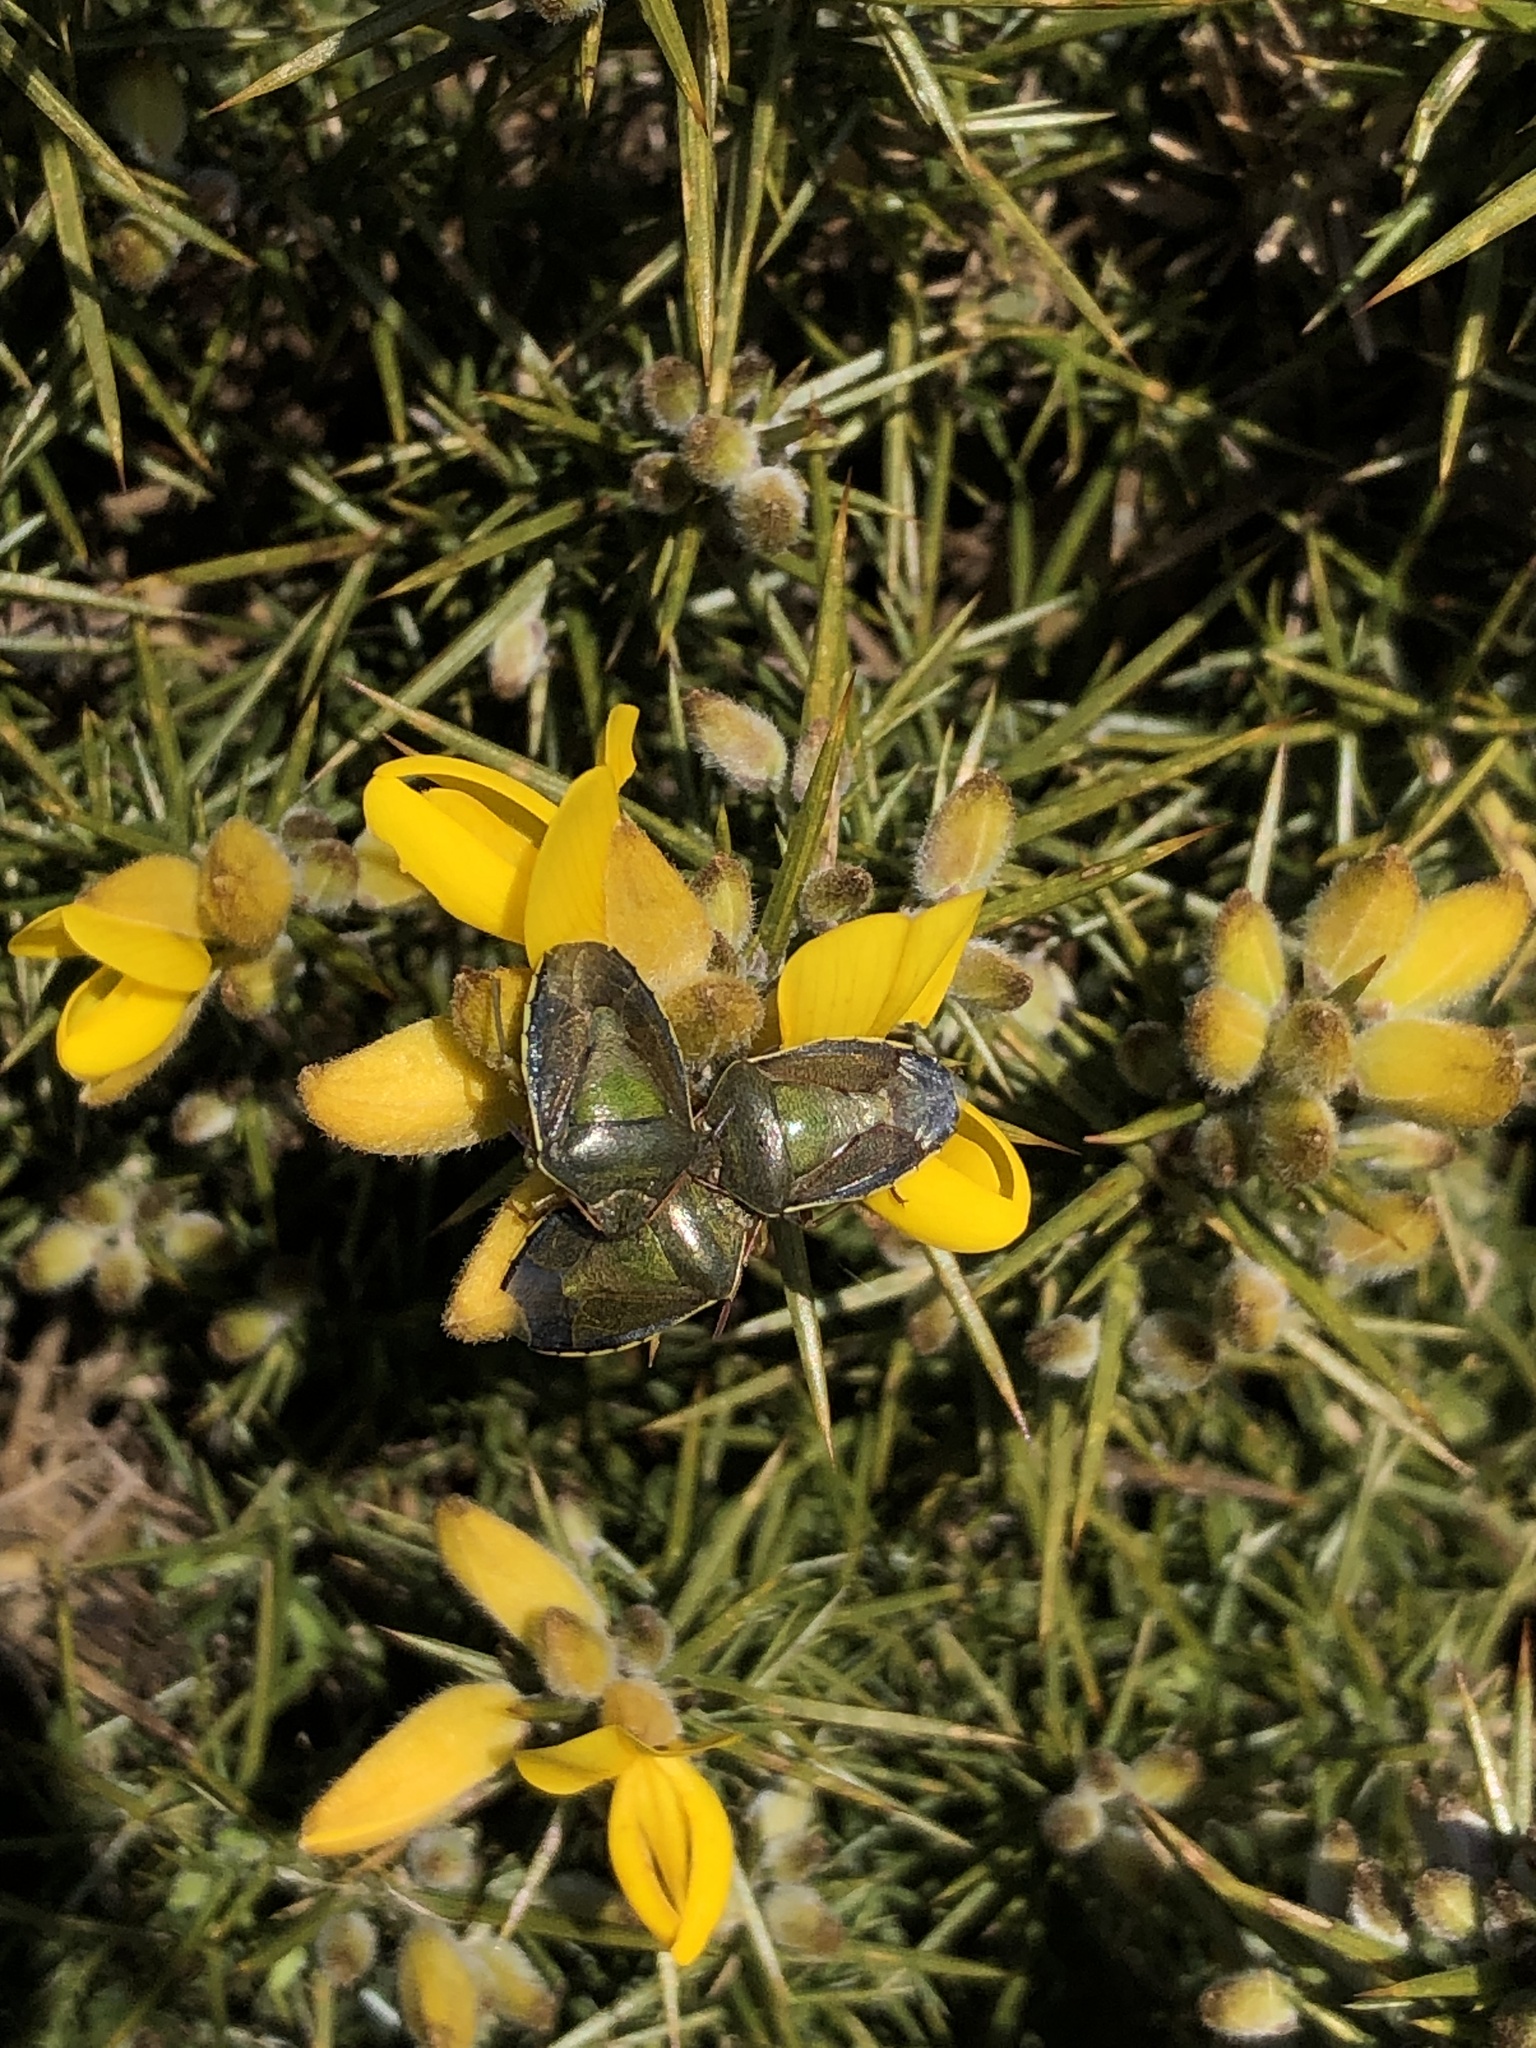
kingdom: Animalia
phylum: Arthropoda
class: Insecta
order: Hemiptera
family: Pentatomidae
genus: Piezodorus
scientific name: Piezodorus lituratus
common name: Stink bug
